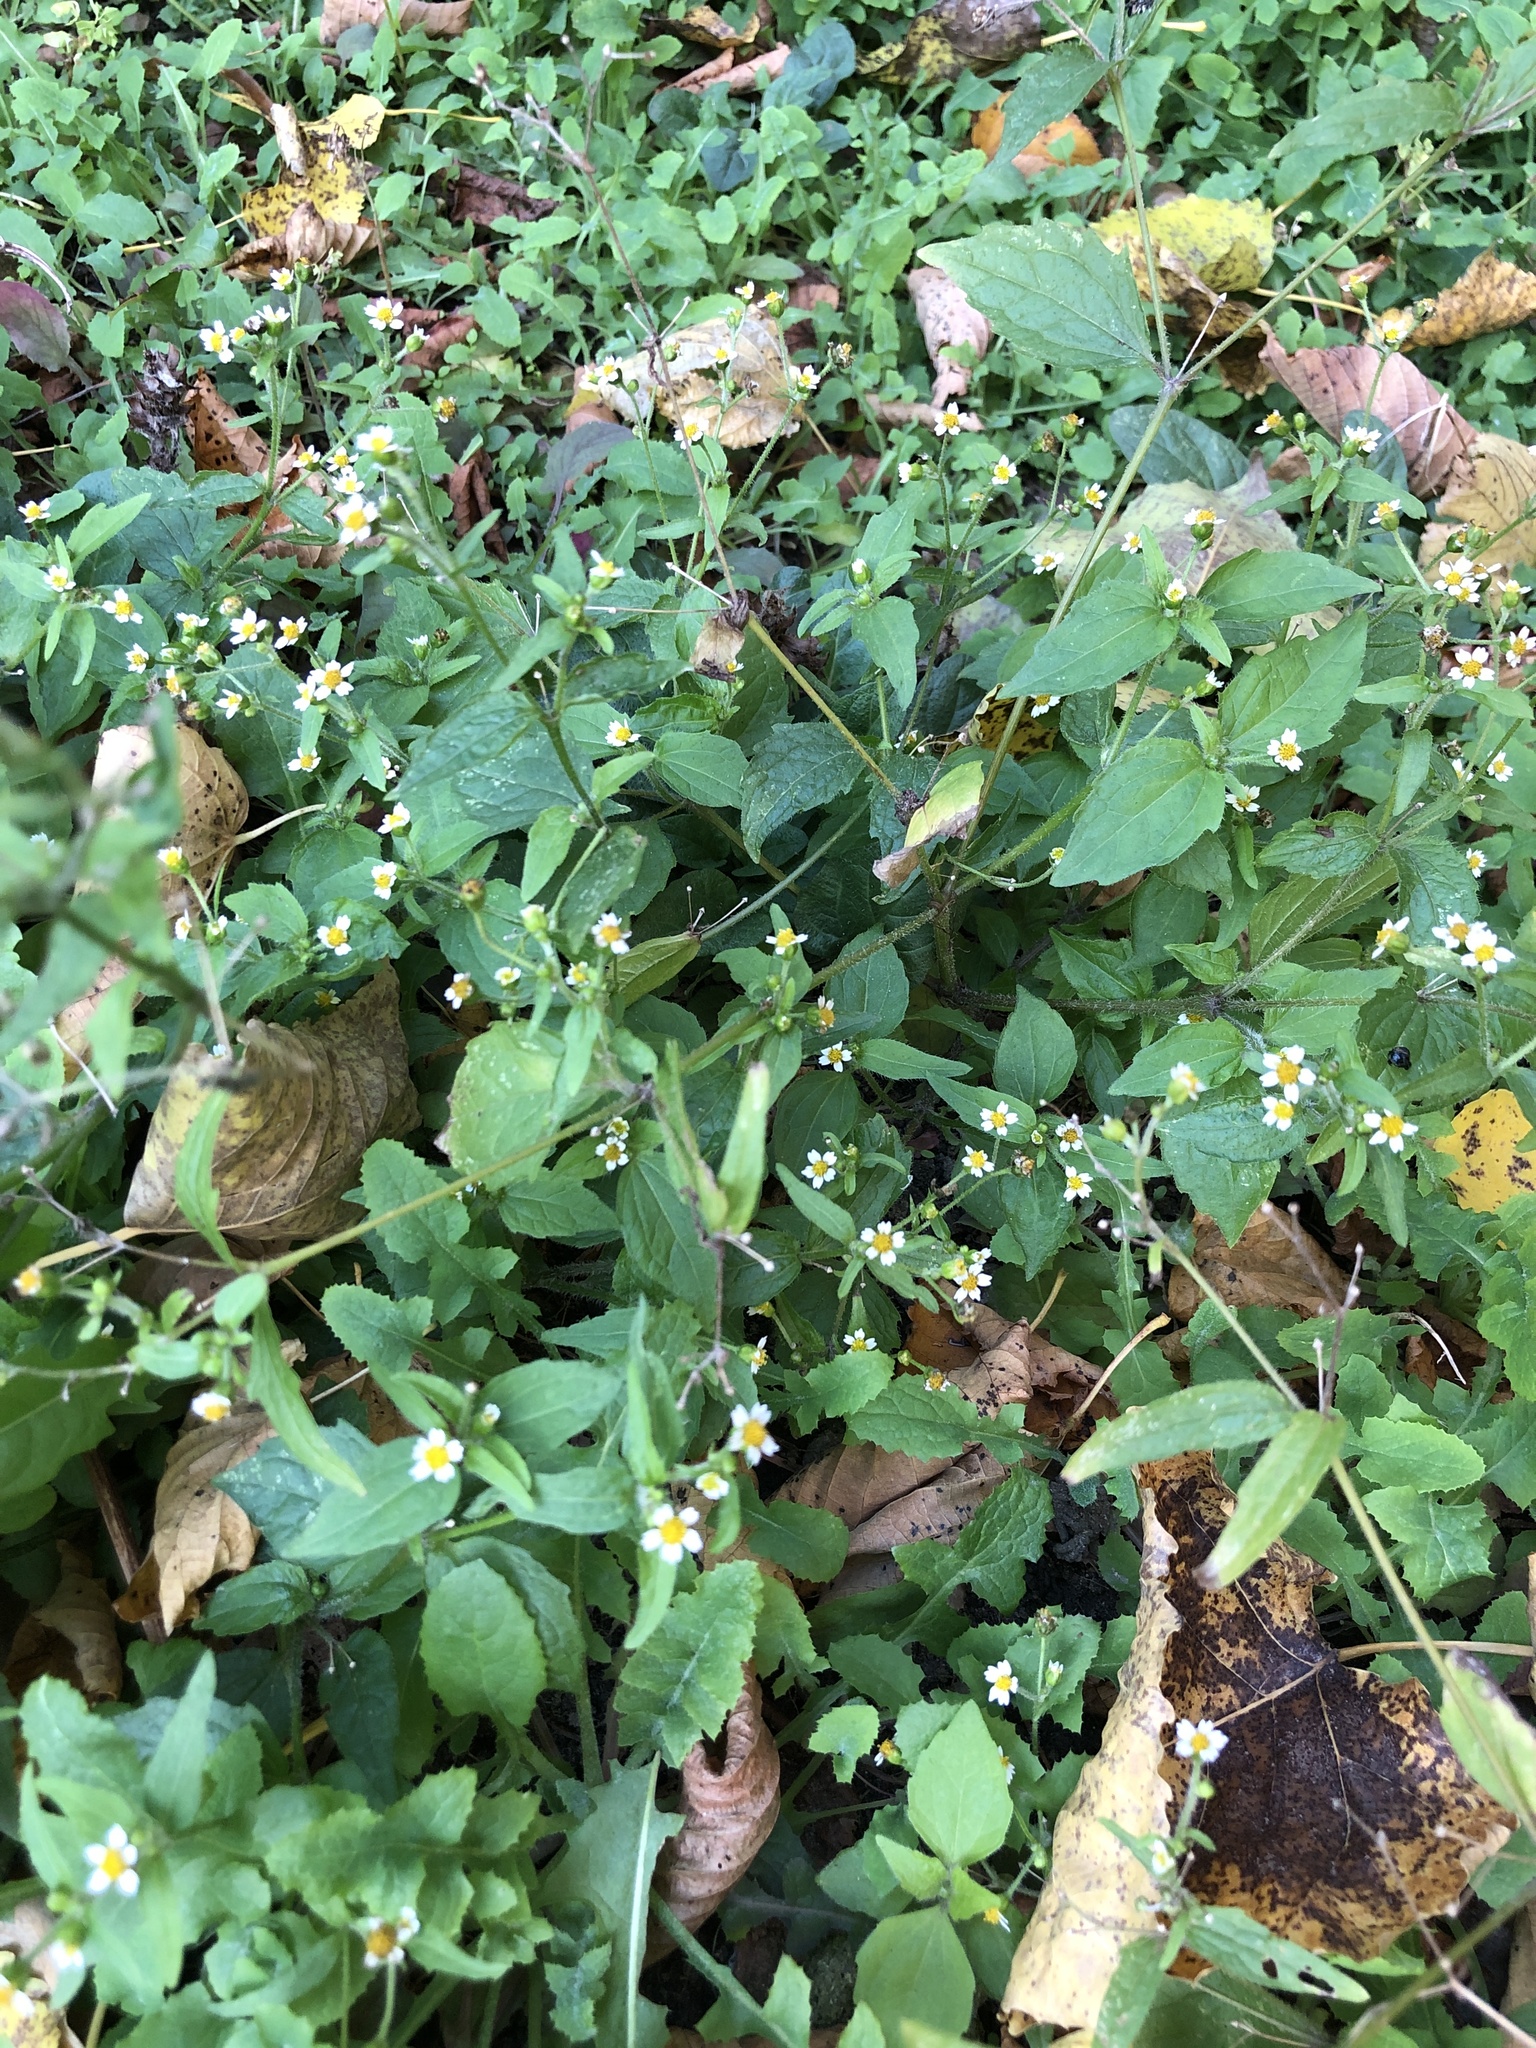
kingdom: Plantae
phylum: Tracheophyta
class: Magnoliopsida
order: Asterales
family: Asteraceae
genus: Galinsoga
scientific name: Galinsoga quadriradiata
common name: Shaggy soldier
